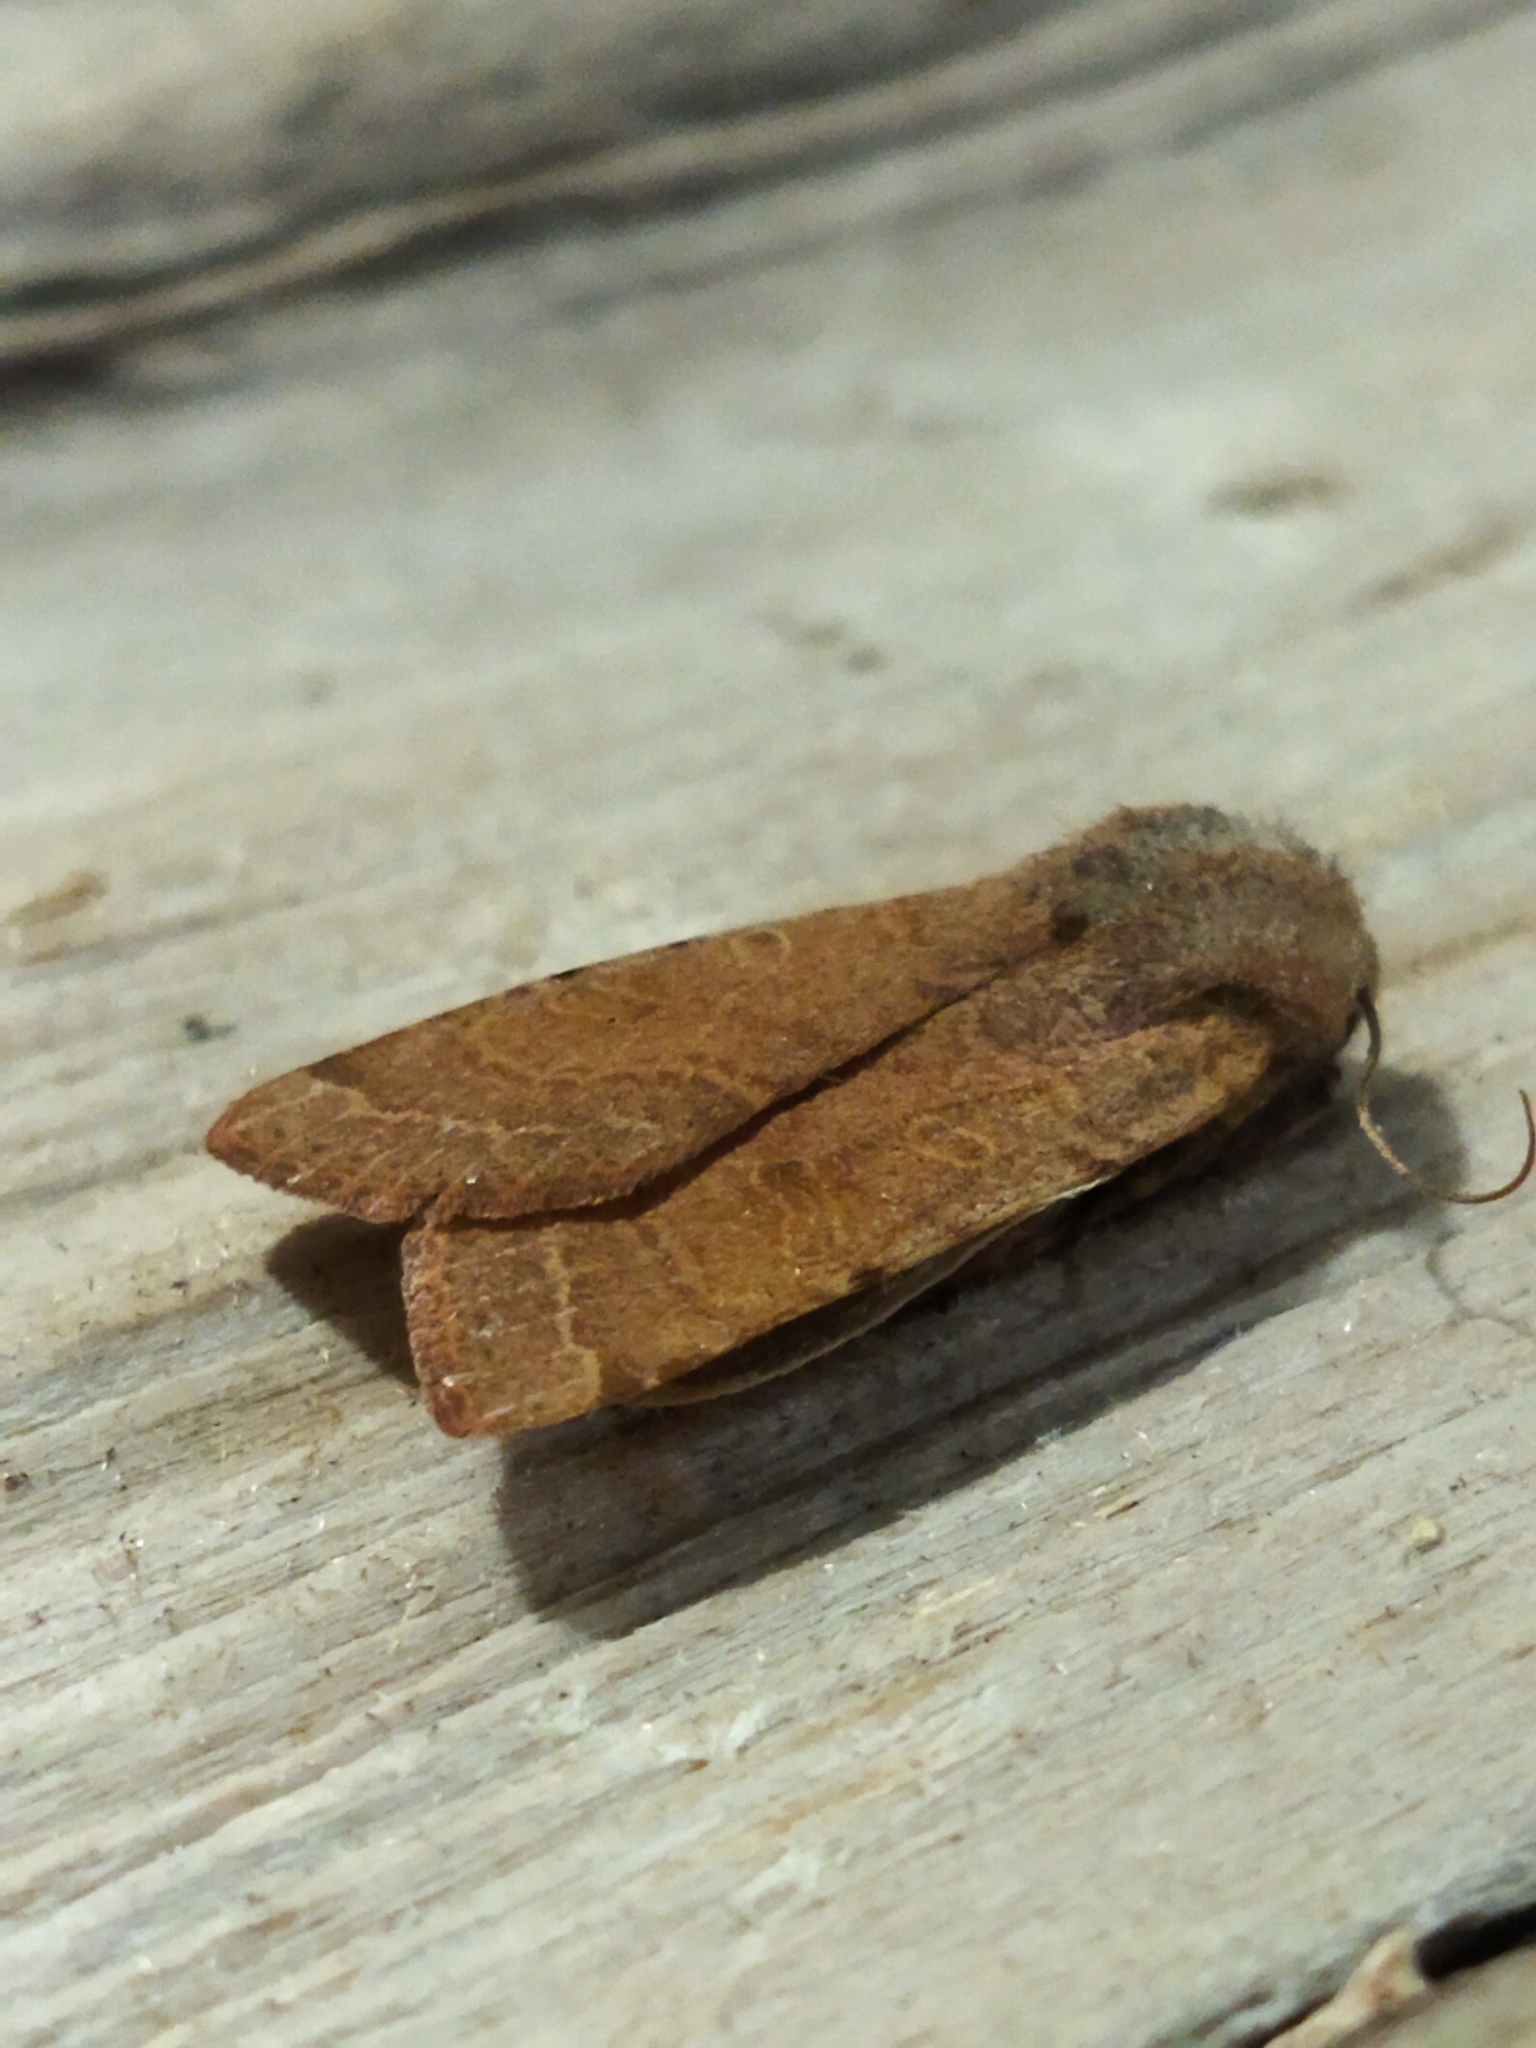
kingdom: Animalia
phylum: Arthropoda
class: Insecta
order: Lepidoptera
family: Noctuidae
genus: Agrochola
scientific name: Agrochola lychnidis
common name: Beaded chestnut
